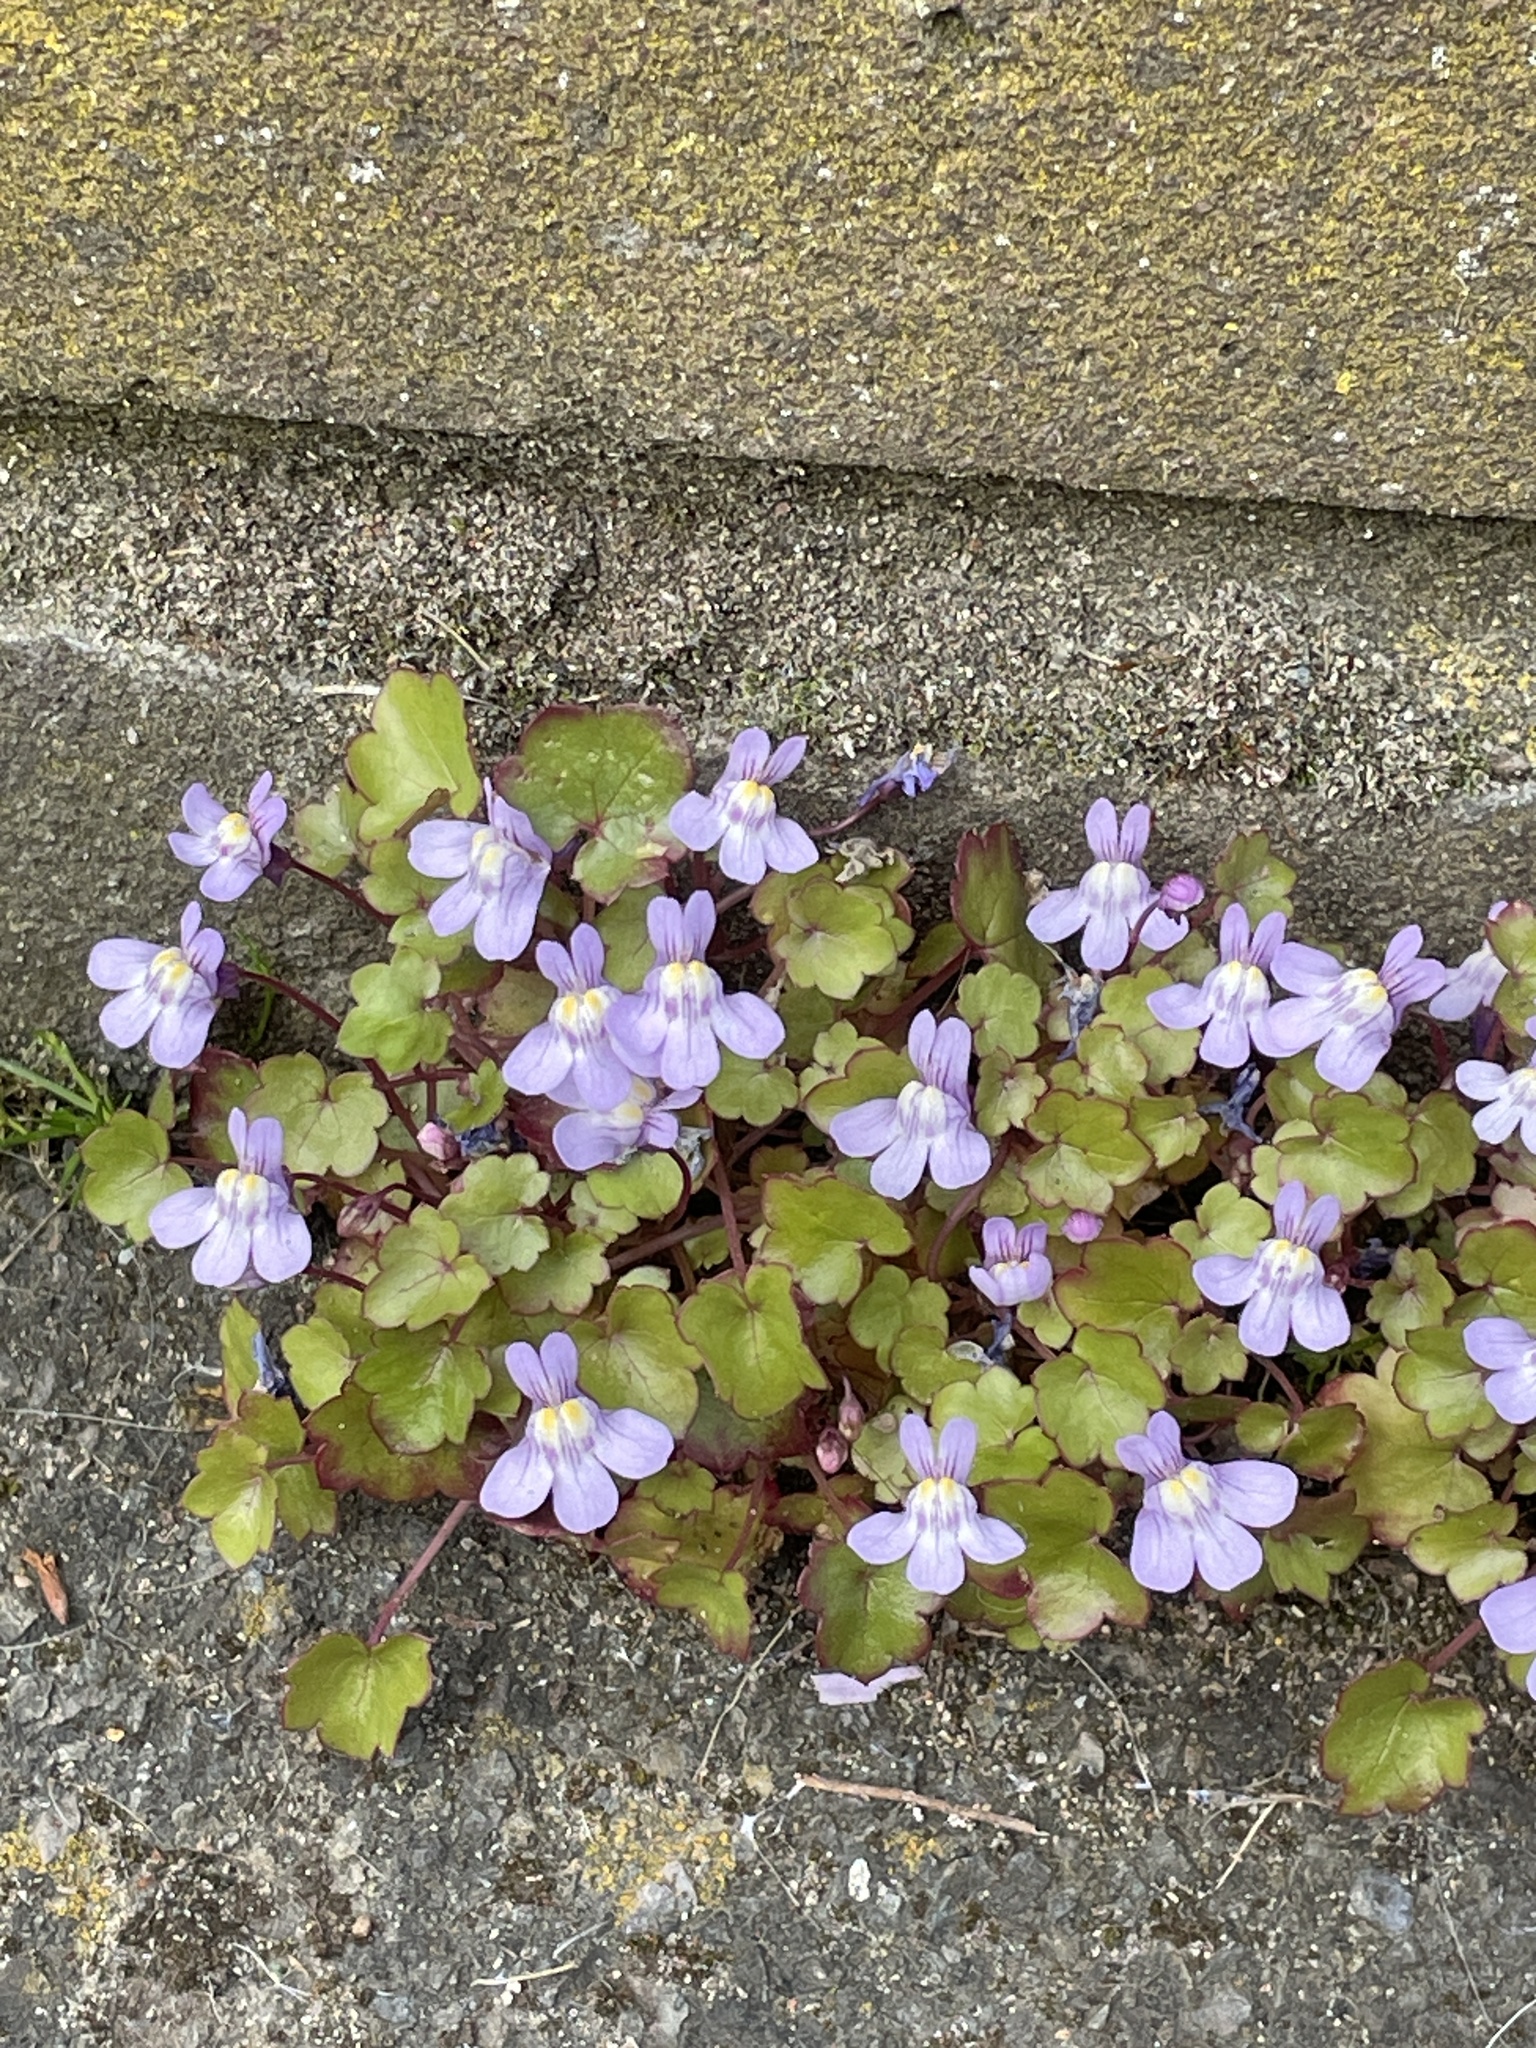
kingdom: Plantae
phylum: Tracheophyta
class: Magnoliopsida
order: Lamiales
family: Plantaginaceae
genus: Cymbalaria
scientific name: Cymbalaria muralis
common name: Ivy-leaved toadflax
